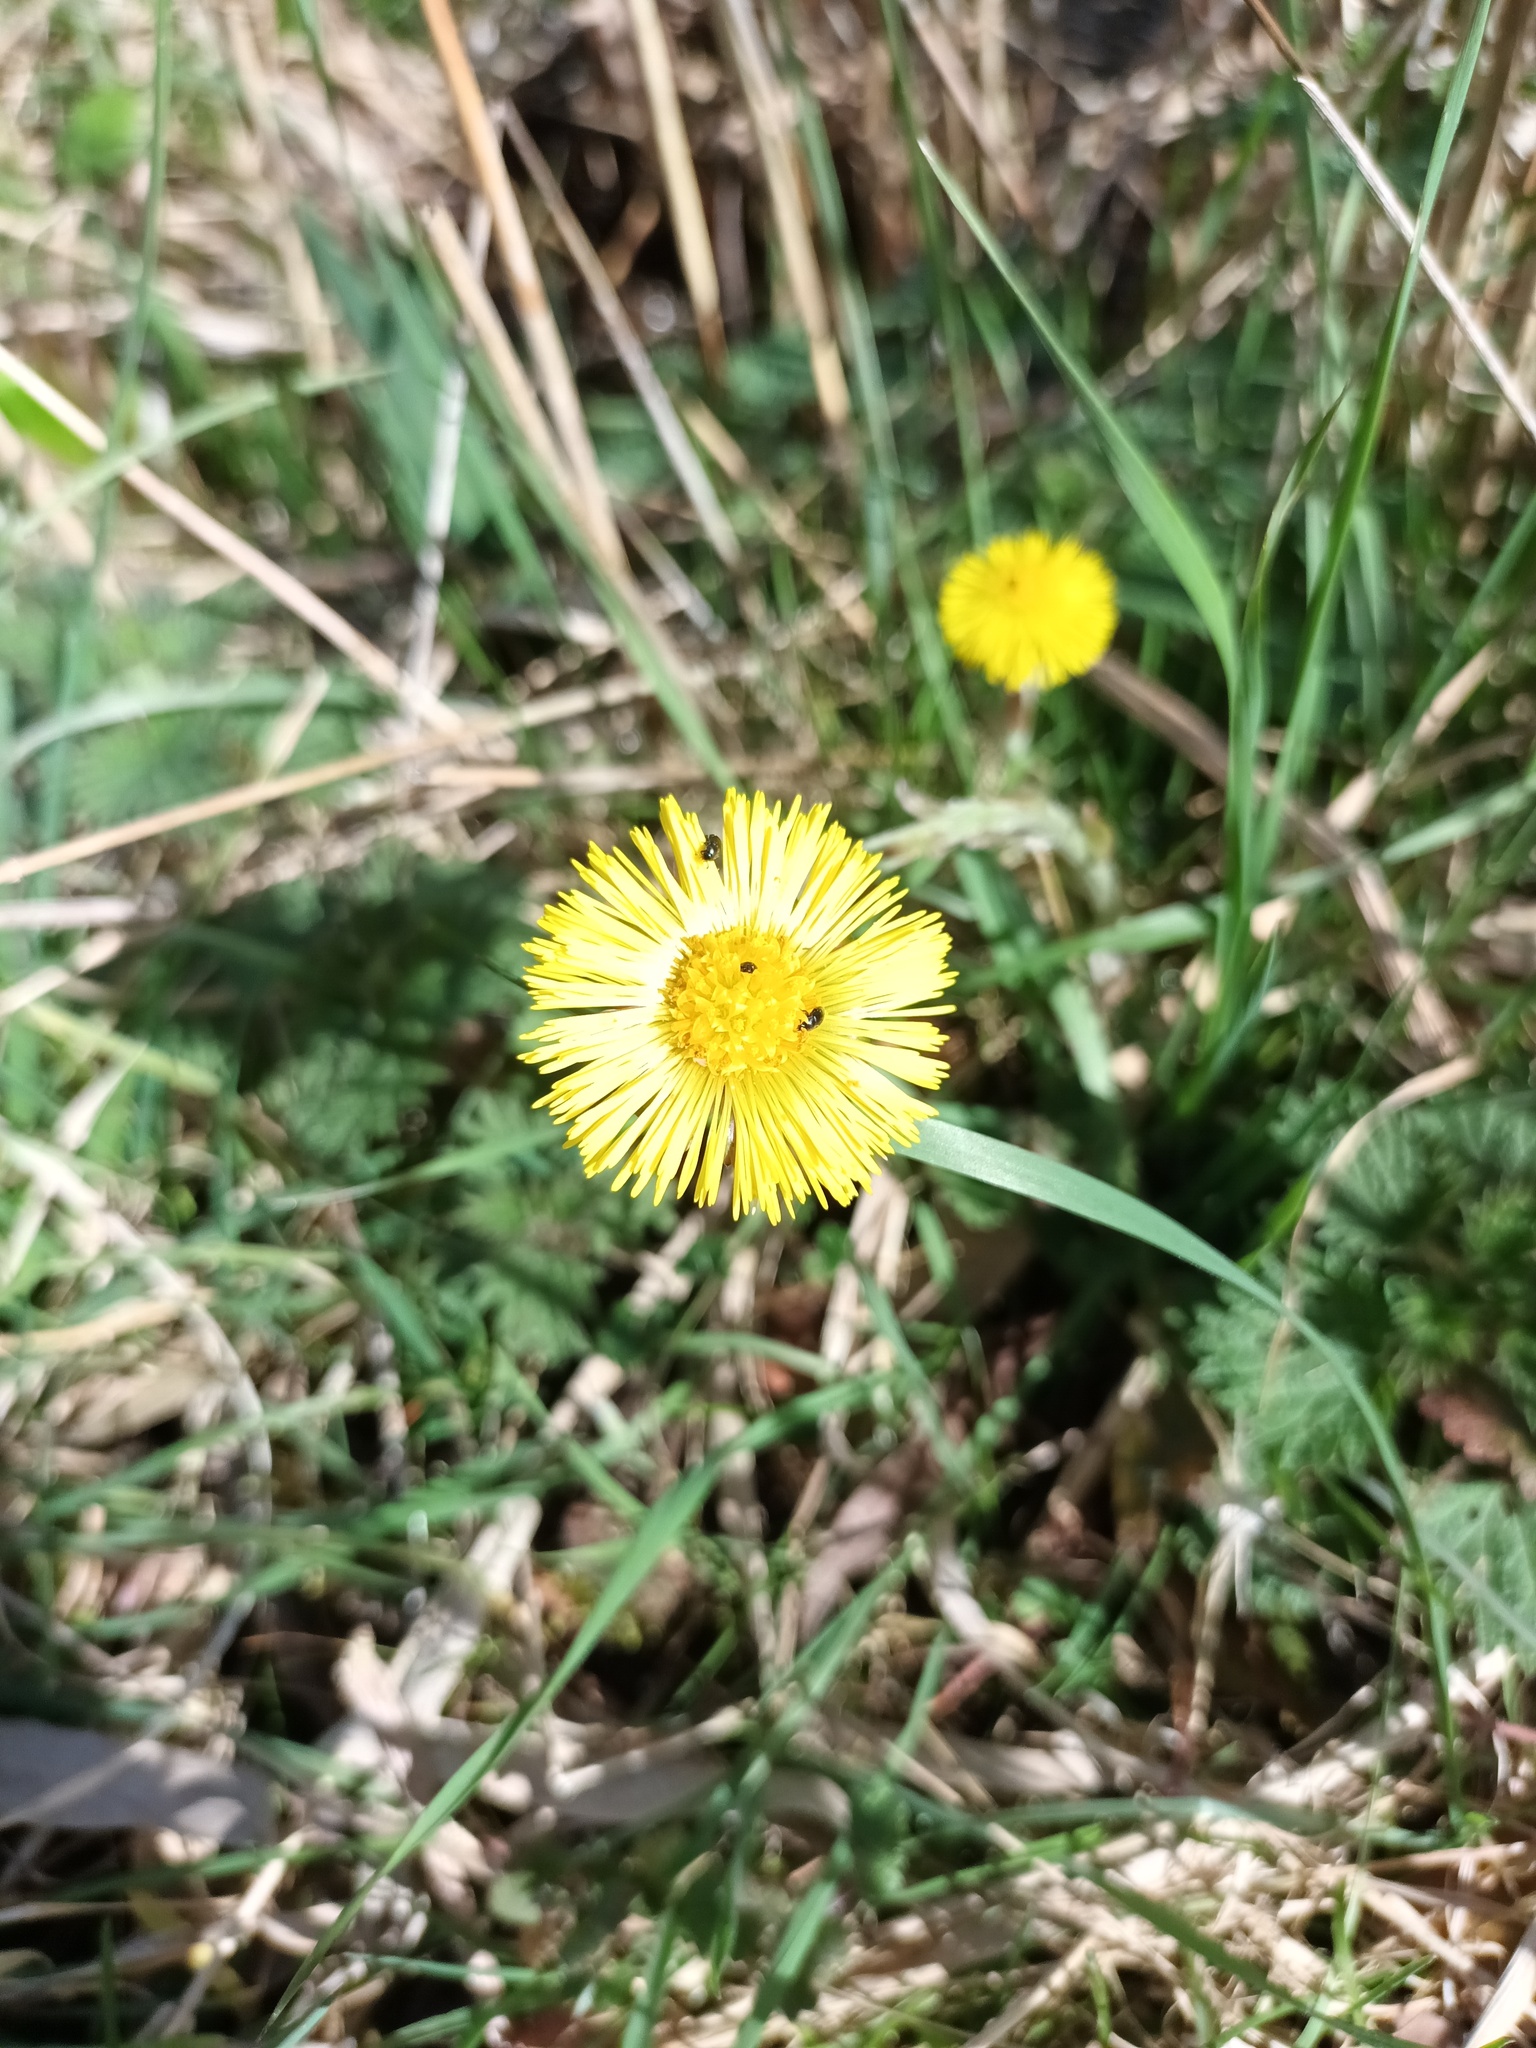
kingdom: Plantae
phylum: Tracheophyta
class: Magnoliopsida
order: Asterales
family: Asteraceae
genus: Tussilago
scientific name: Tussilago farfara
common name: Coltsfoot
